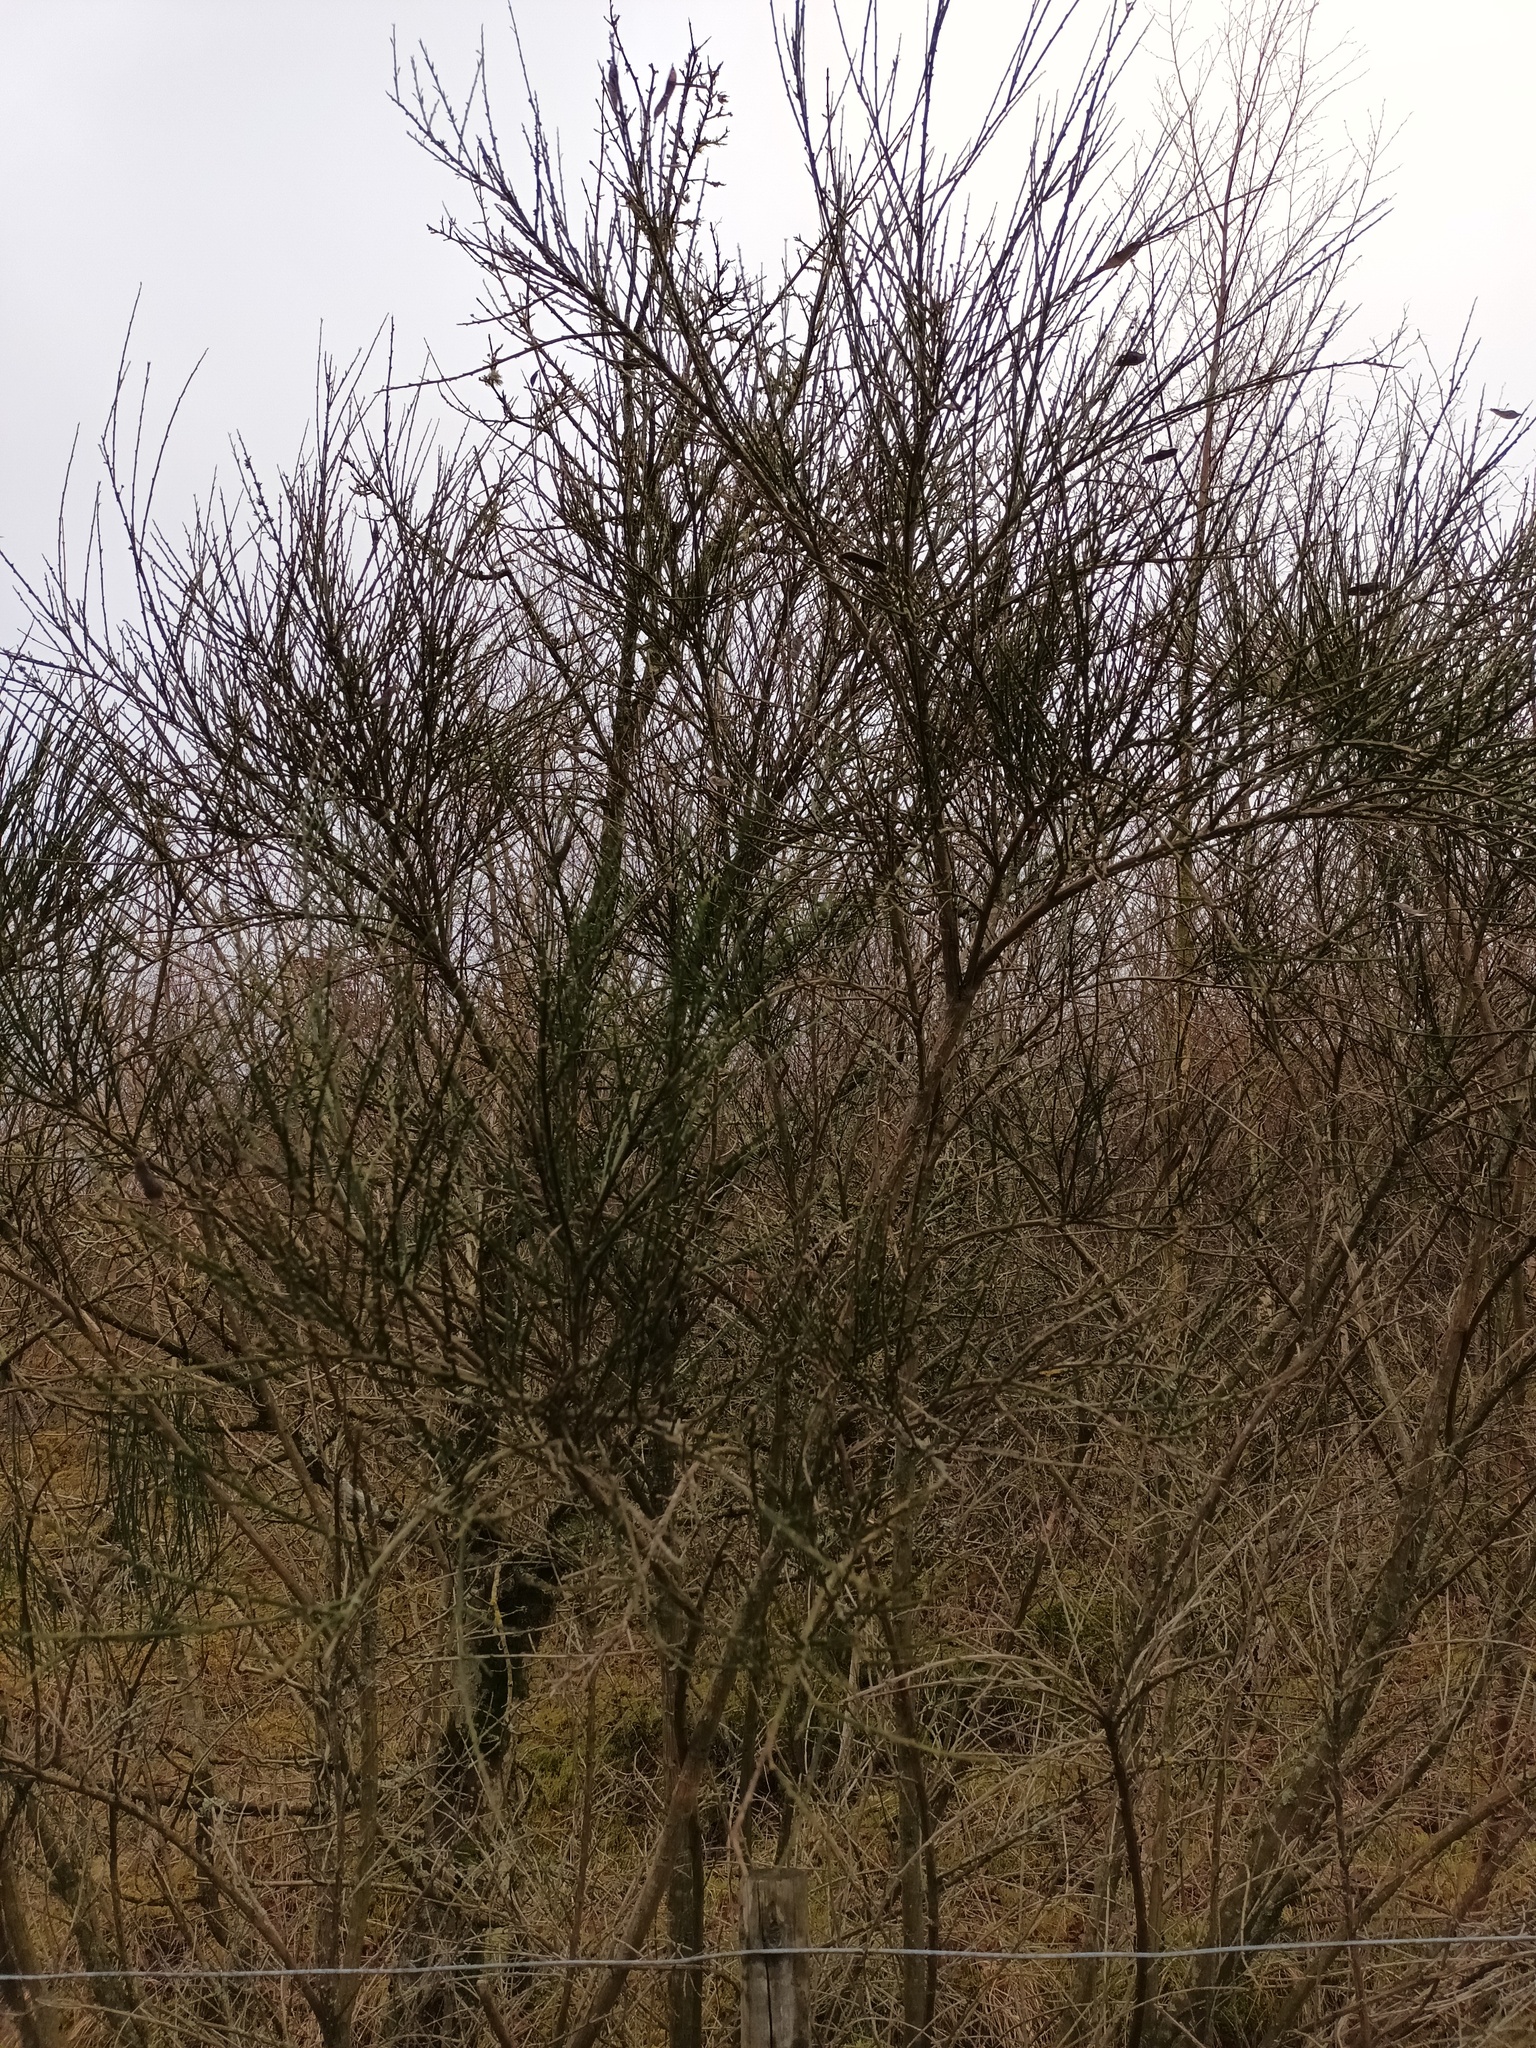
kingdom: Plantae
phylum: Tracheophyta
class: Magnoliopsida
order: Fabales
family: Fabaceae
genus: Cytisus
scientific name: Cytisus scoparius
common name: Scotch broom
